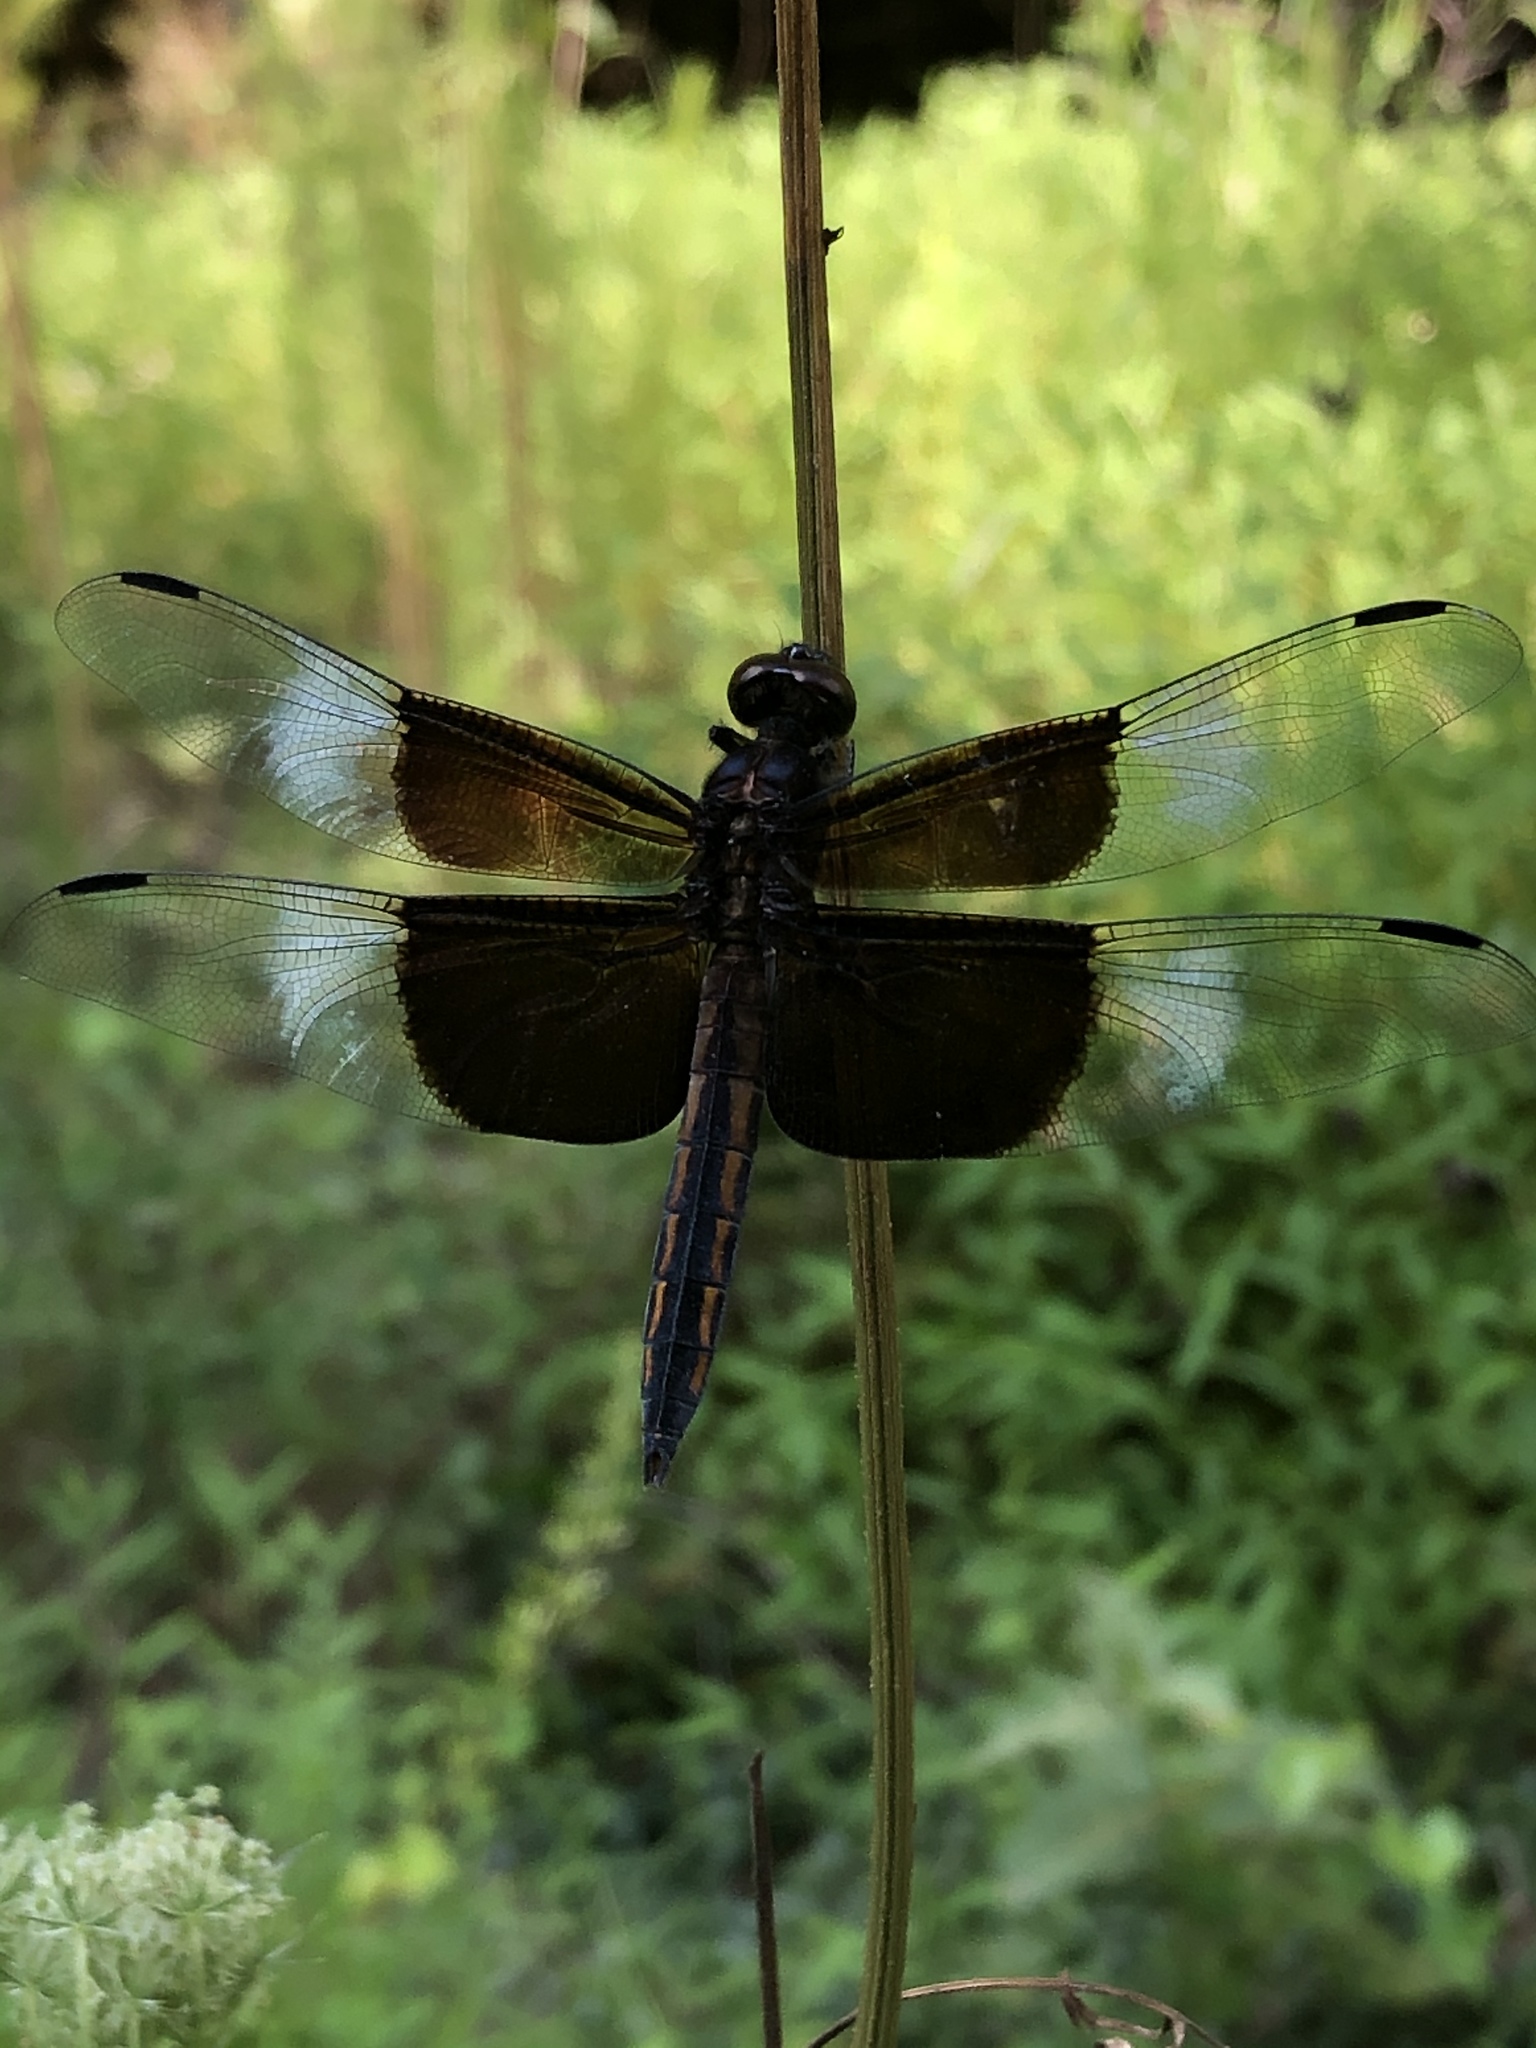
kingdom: Animalia
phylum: Arthropoda
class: Insecta
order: Odonata
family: Libellulidae
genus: Libellula
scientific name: Libellula luctuosa
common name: Widow skimmer
